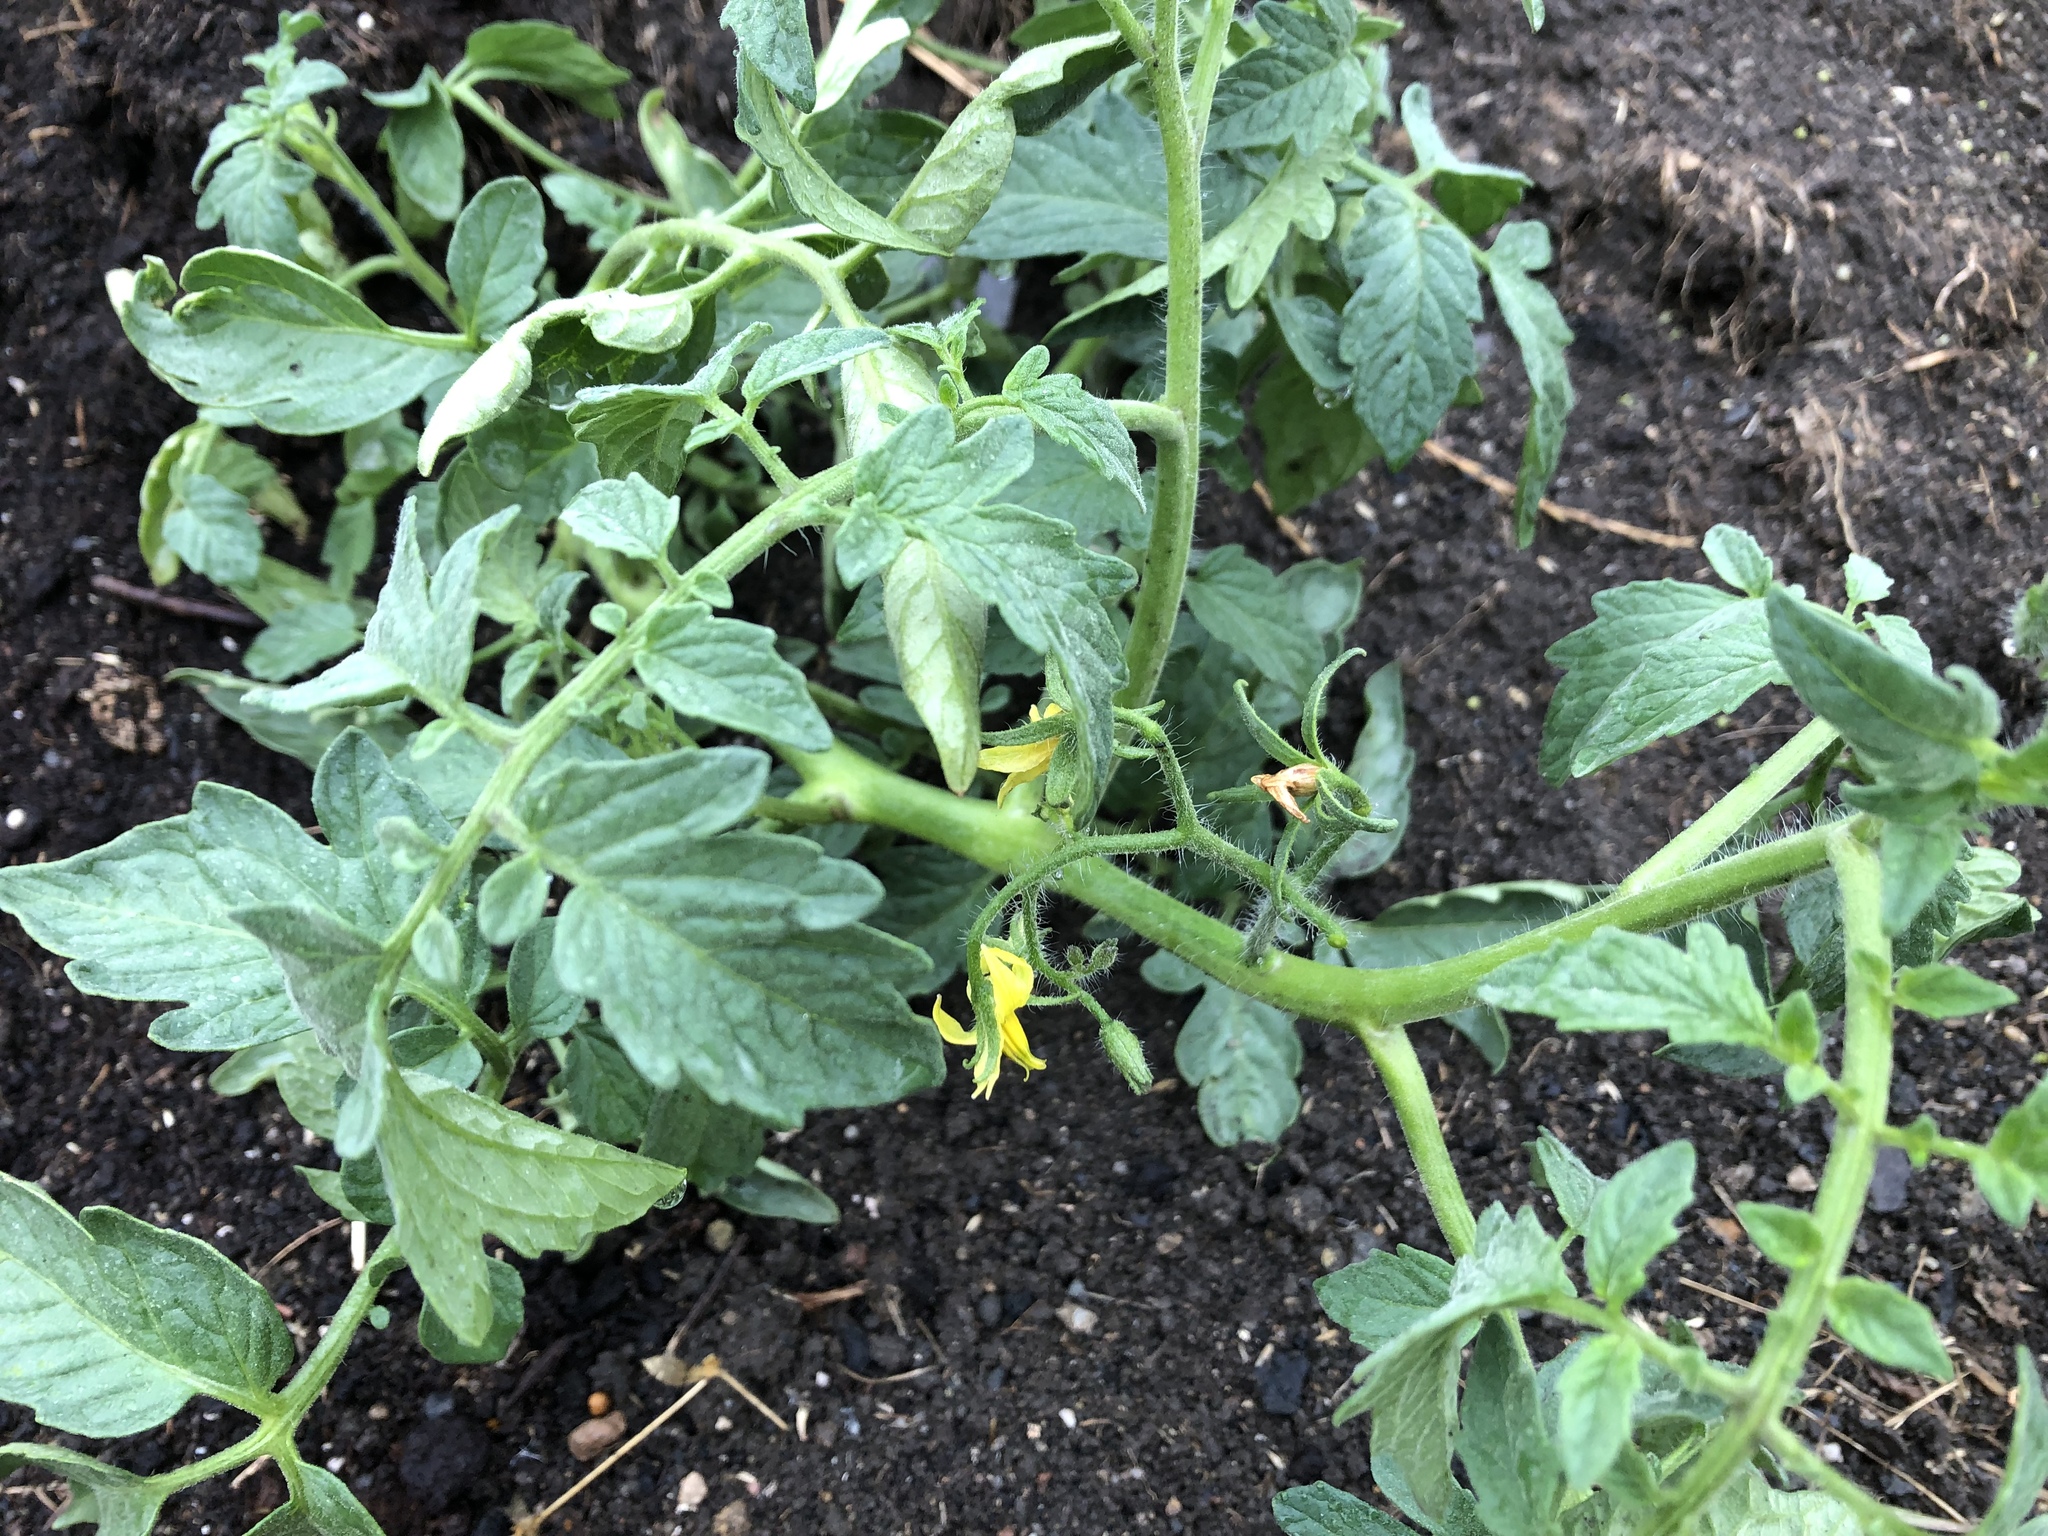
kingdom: Plantae
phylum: Tracheophyta
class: Magnoliopsida
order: Solanales
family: Solanaceae
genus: Solanum
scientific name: Solanum lycopersicum
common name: Garden tomato
